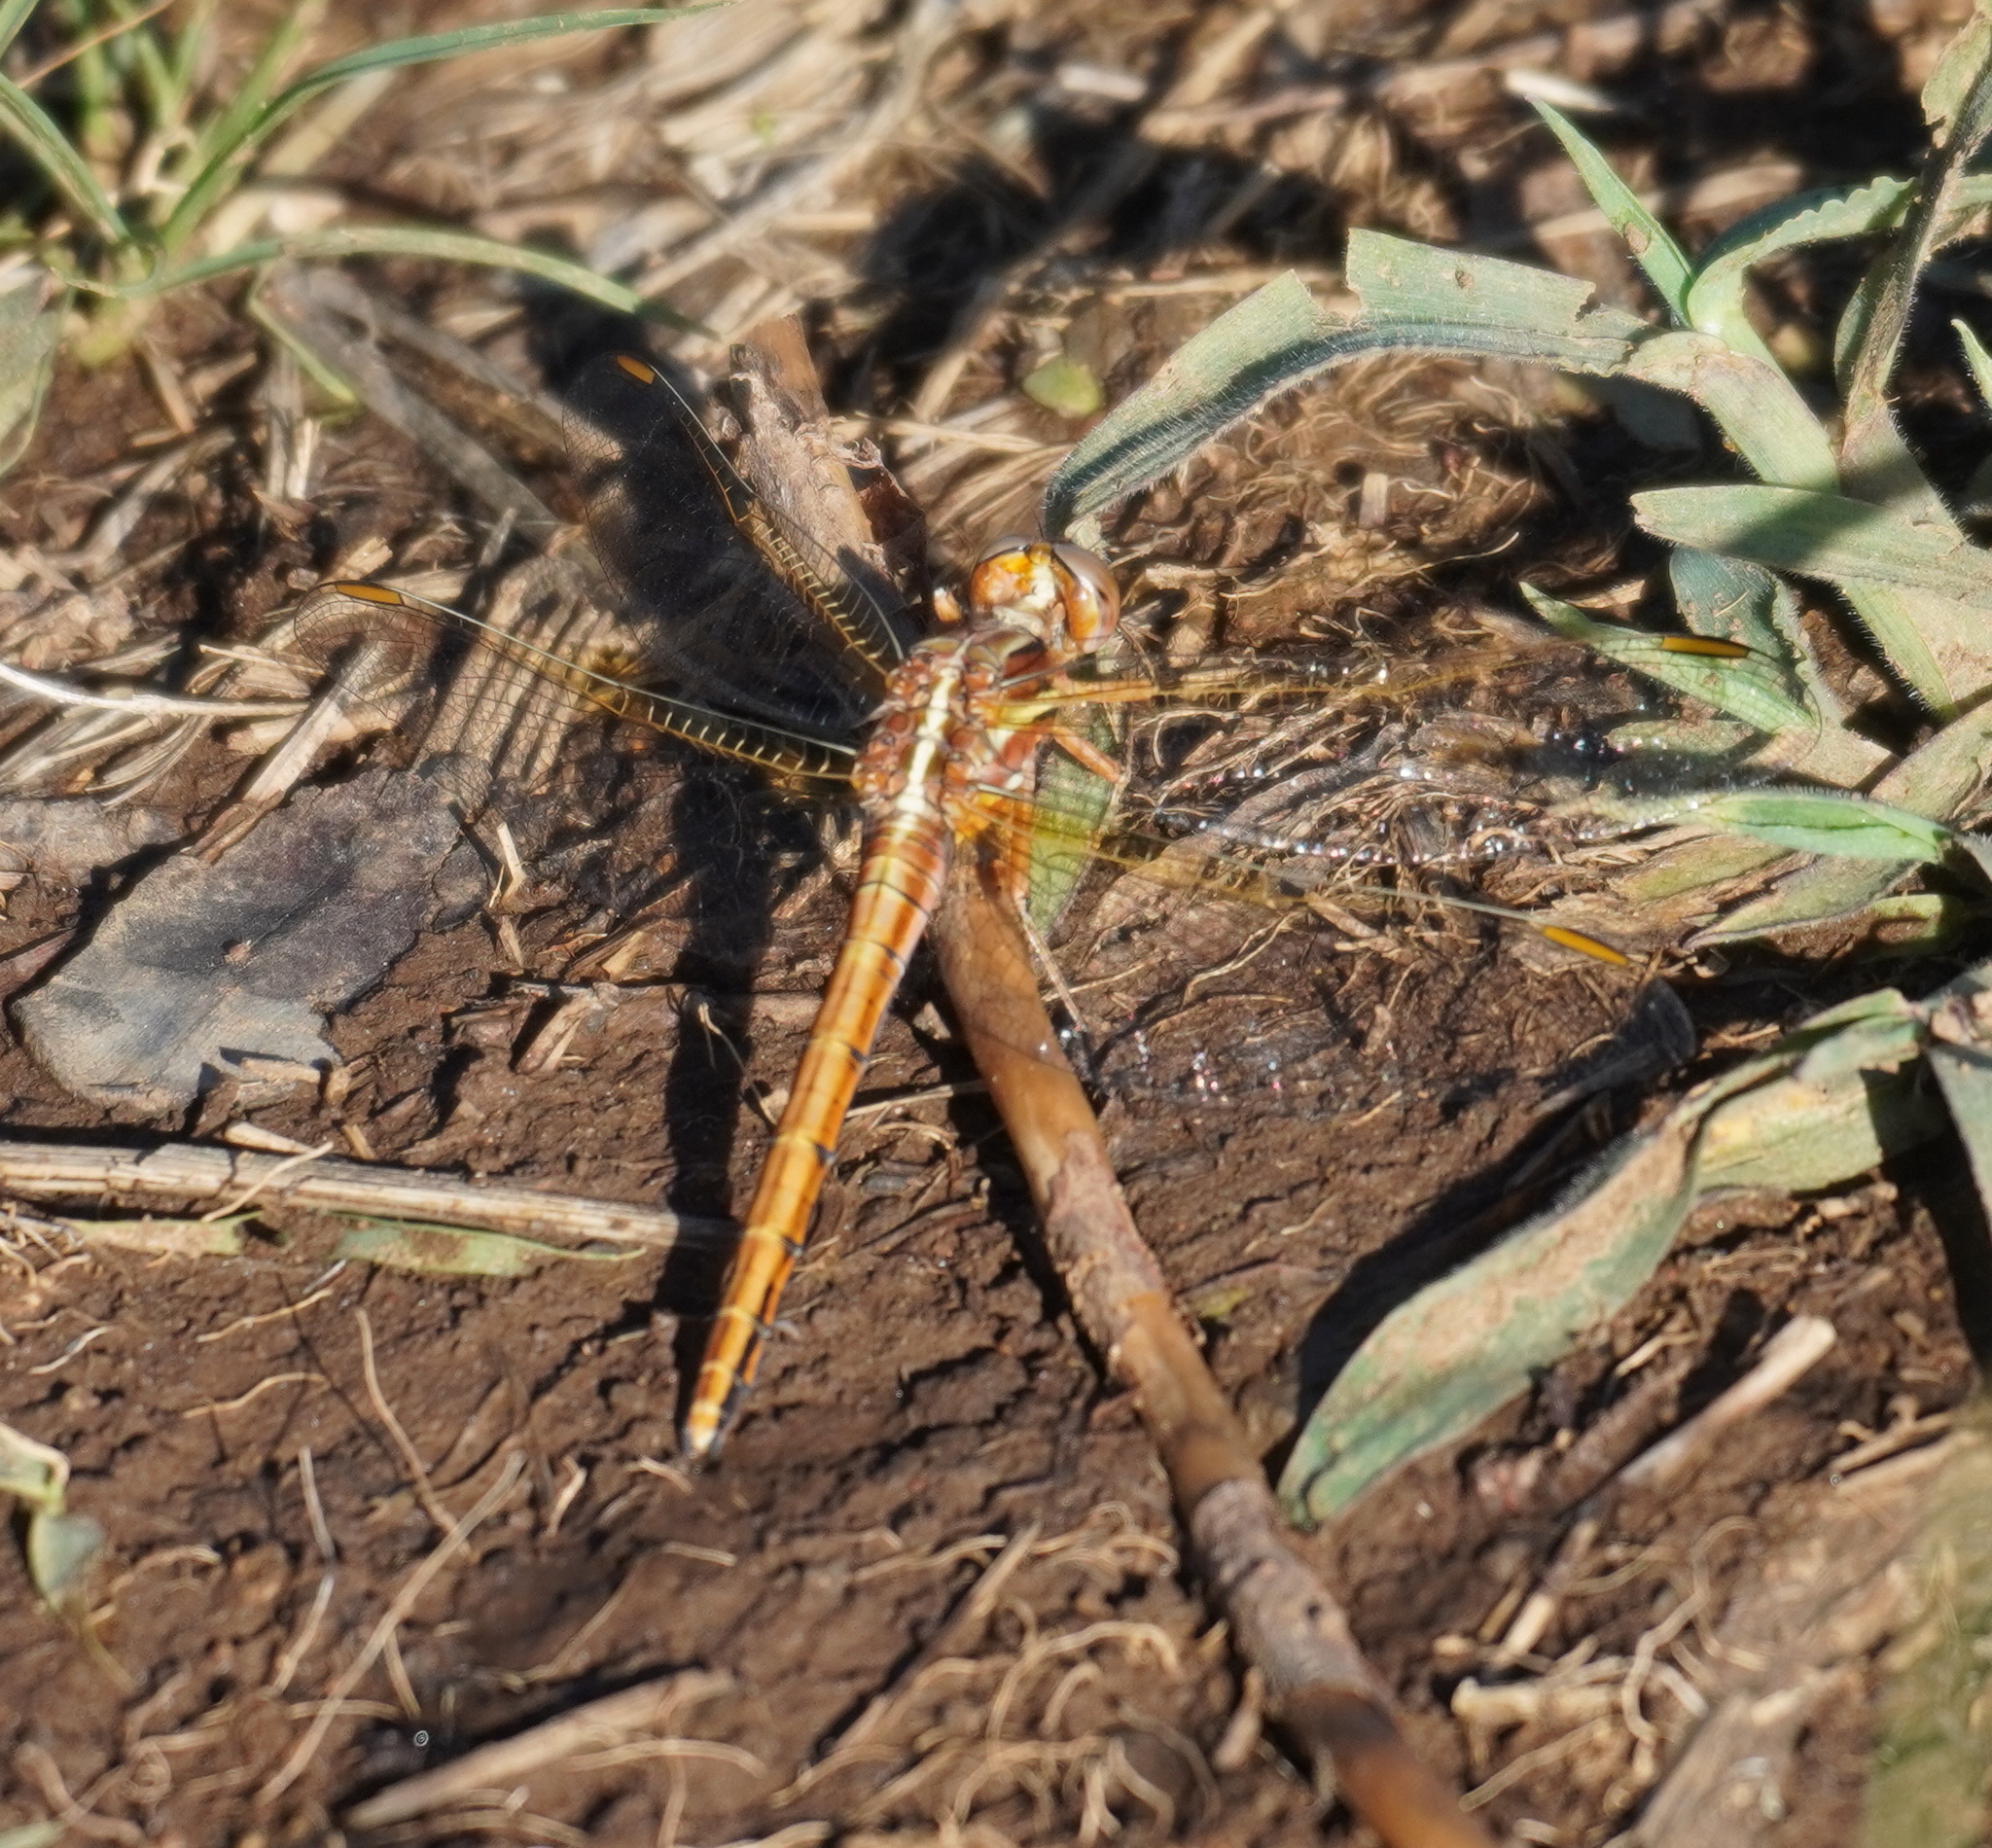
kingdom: Animalia
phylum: Arthropoda
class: Insecta
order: Odonata
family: Libellulidae
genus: Orthetrum
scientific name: Orthetrum caffrum
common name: Two-striped skimmer
